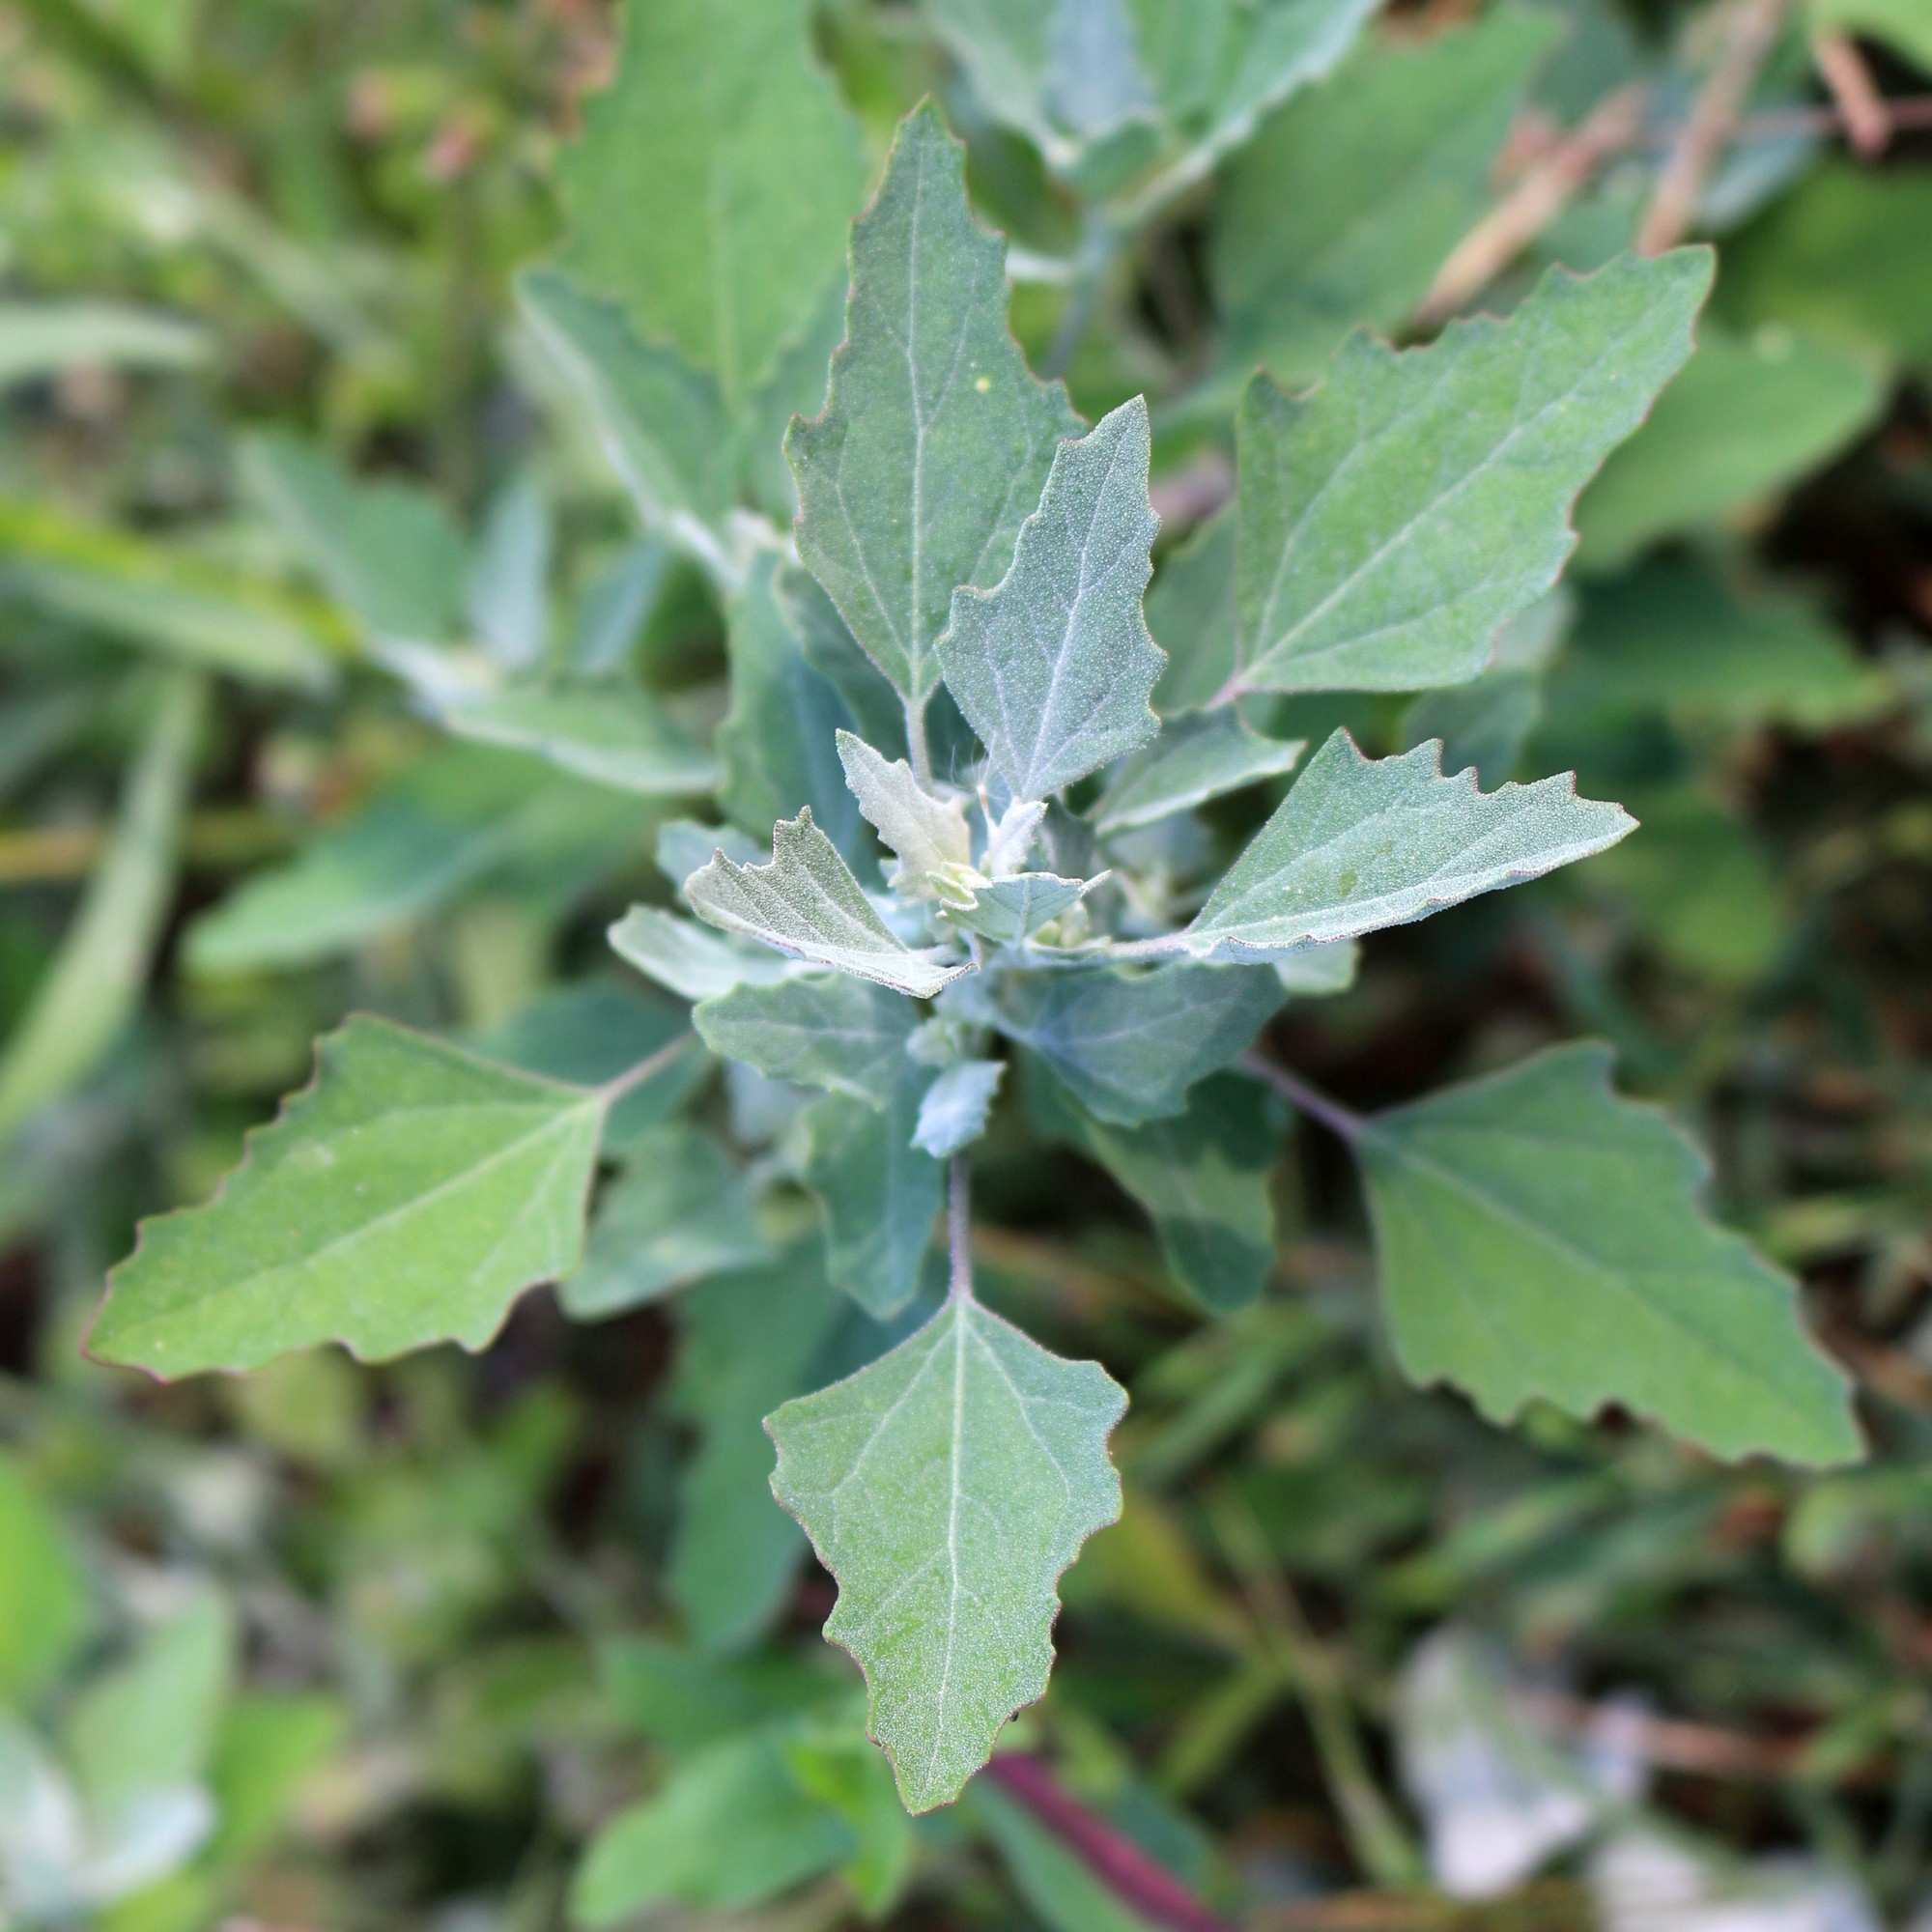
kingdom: Plantae
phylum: Tracheophyta
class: Magnoliopsida
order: Caryophyllales
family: Amaranthaceae
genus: Chenopodium
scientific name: Chenopodium album
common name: Fat-hen
